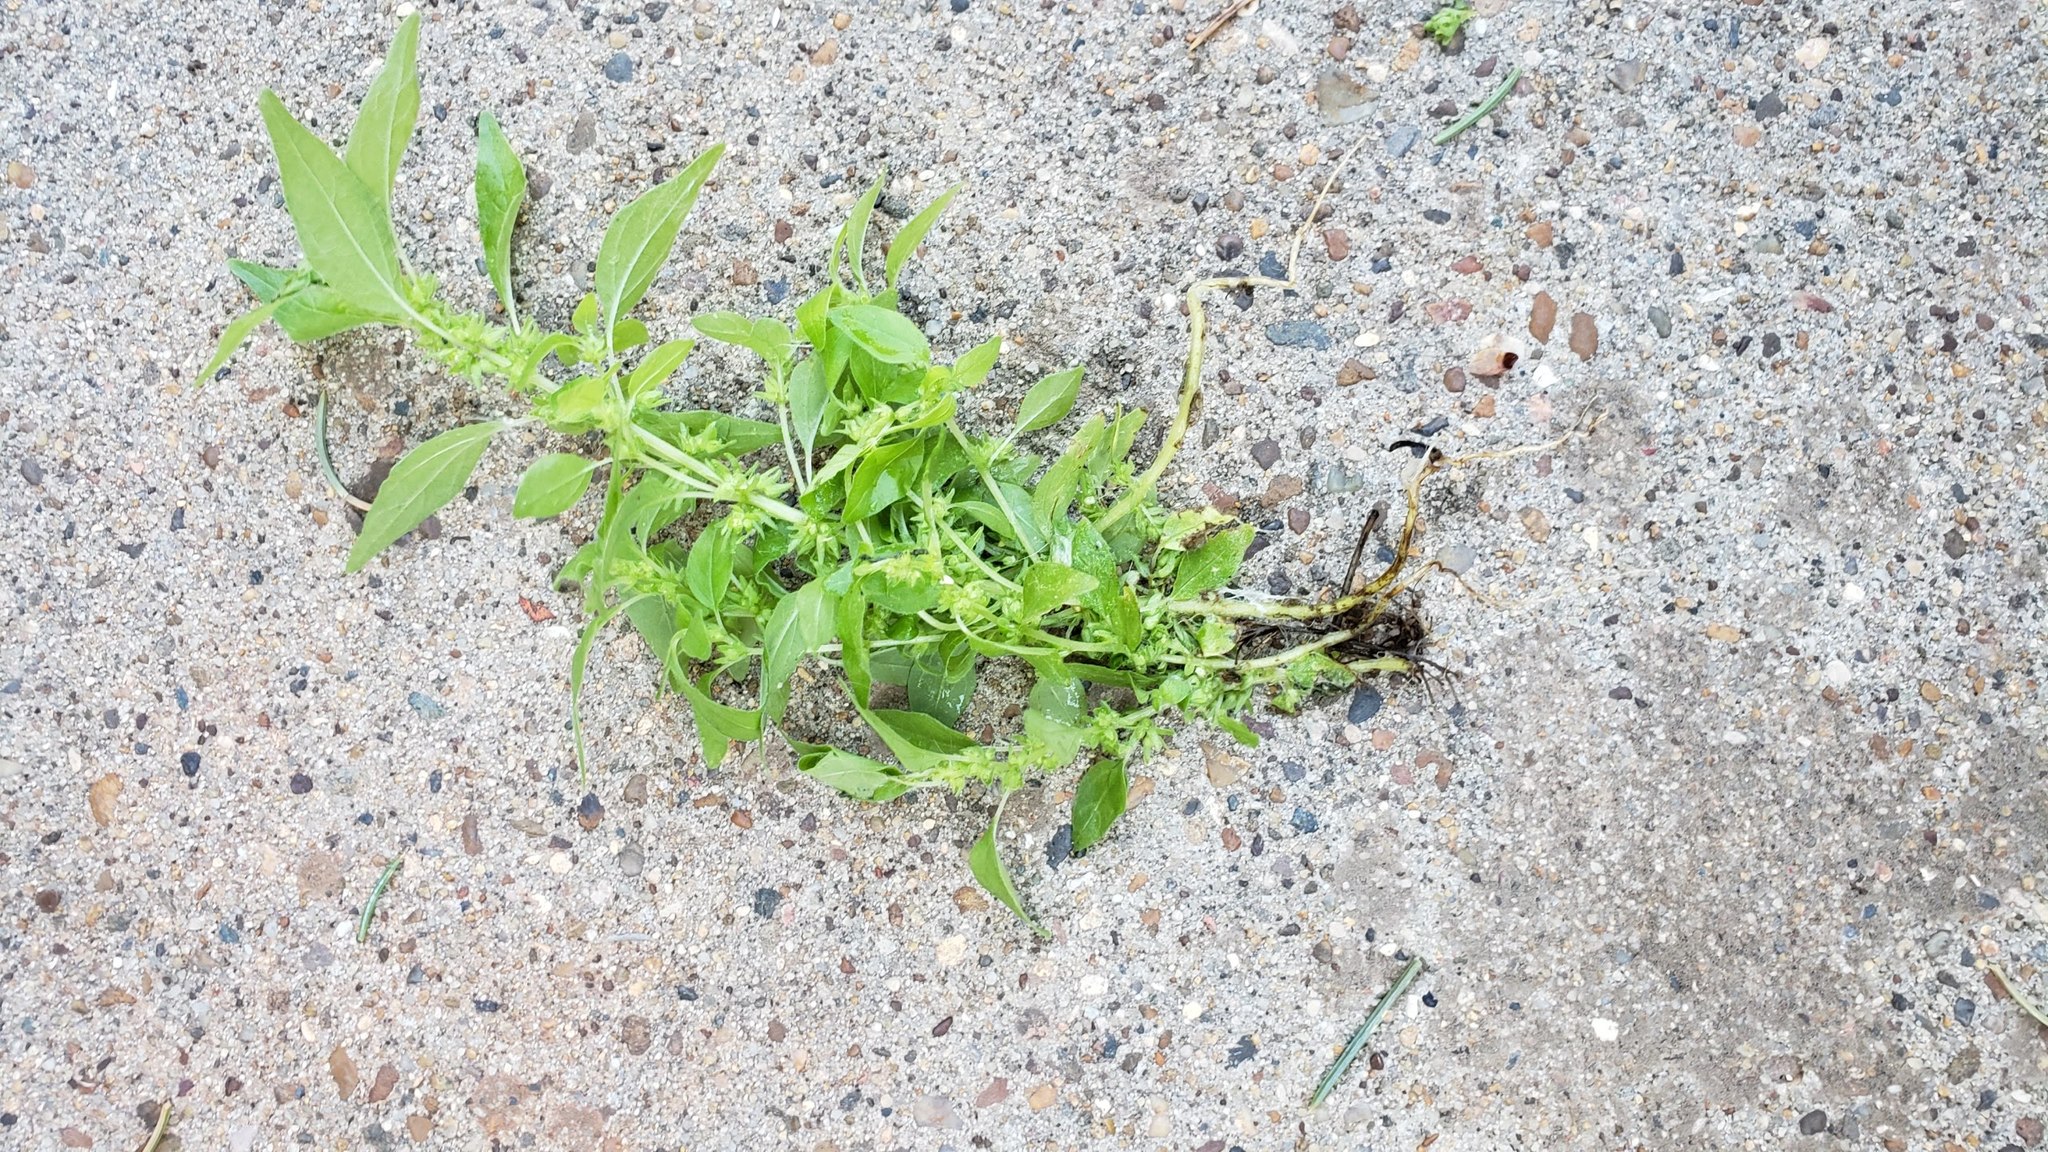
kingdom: Plantae
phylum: Tracheophyta
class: Magnoliopsida
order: Rosales
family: Urticaceae
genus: Parietaria
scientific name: Parietaria pensylvanica
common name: Pennsylvania pellitory
